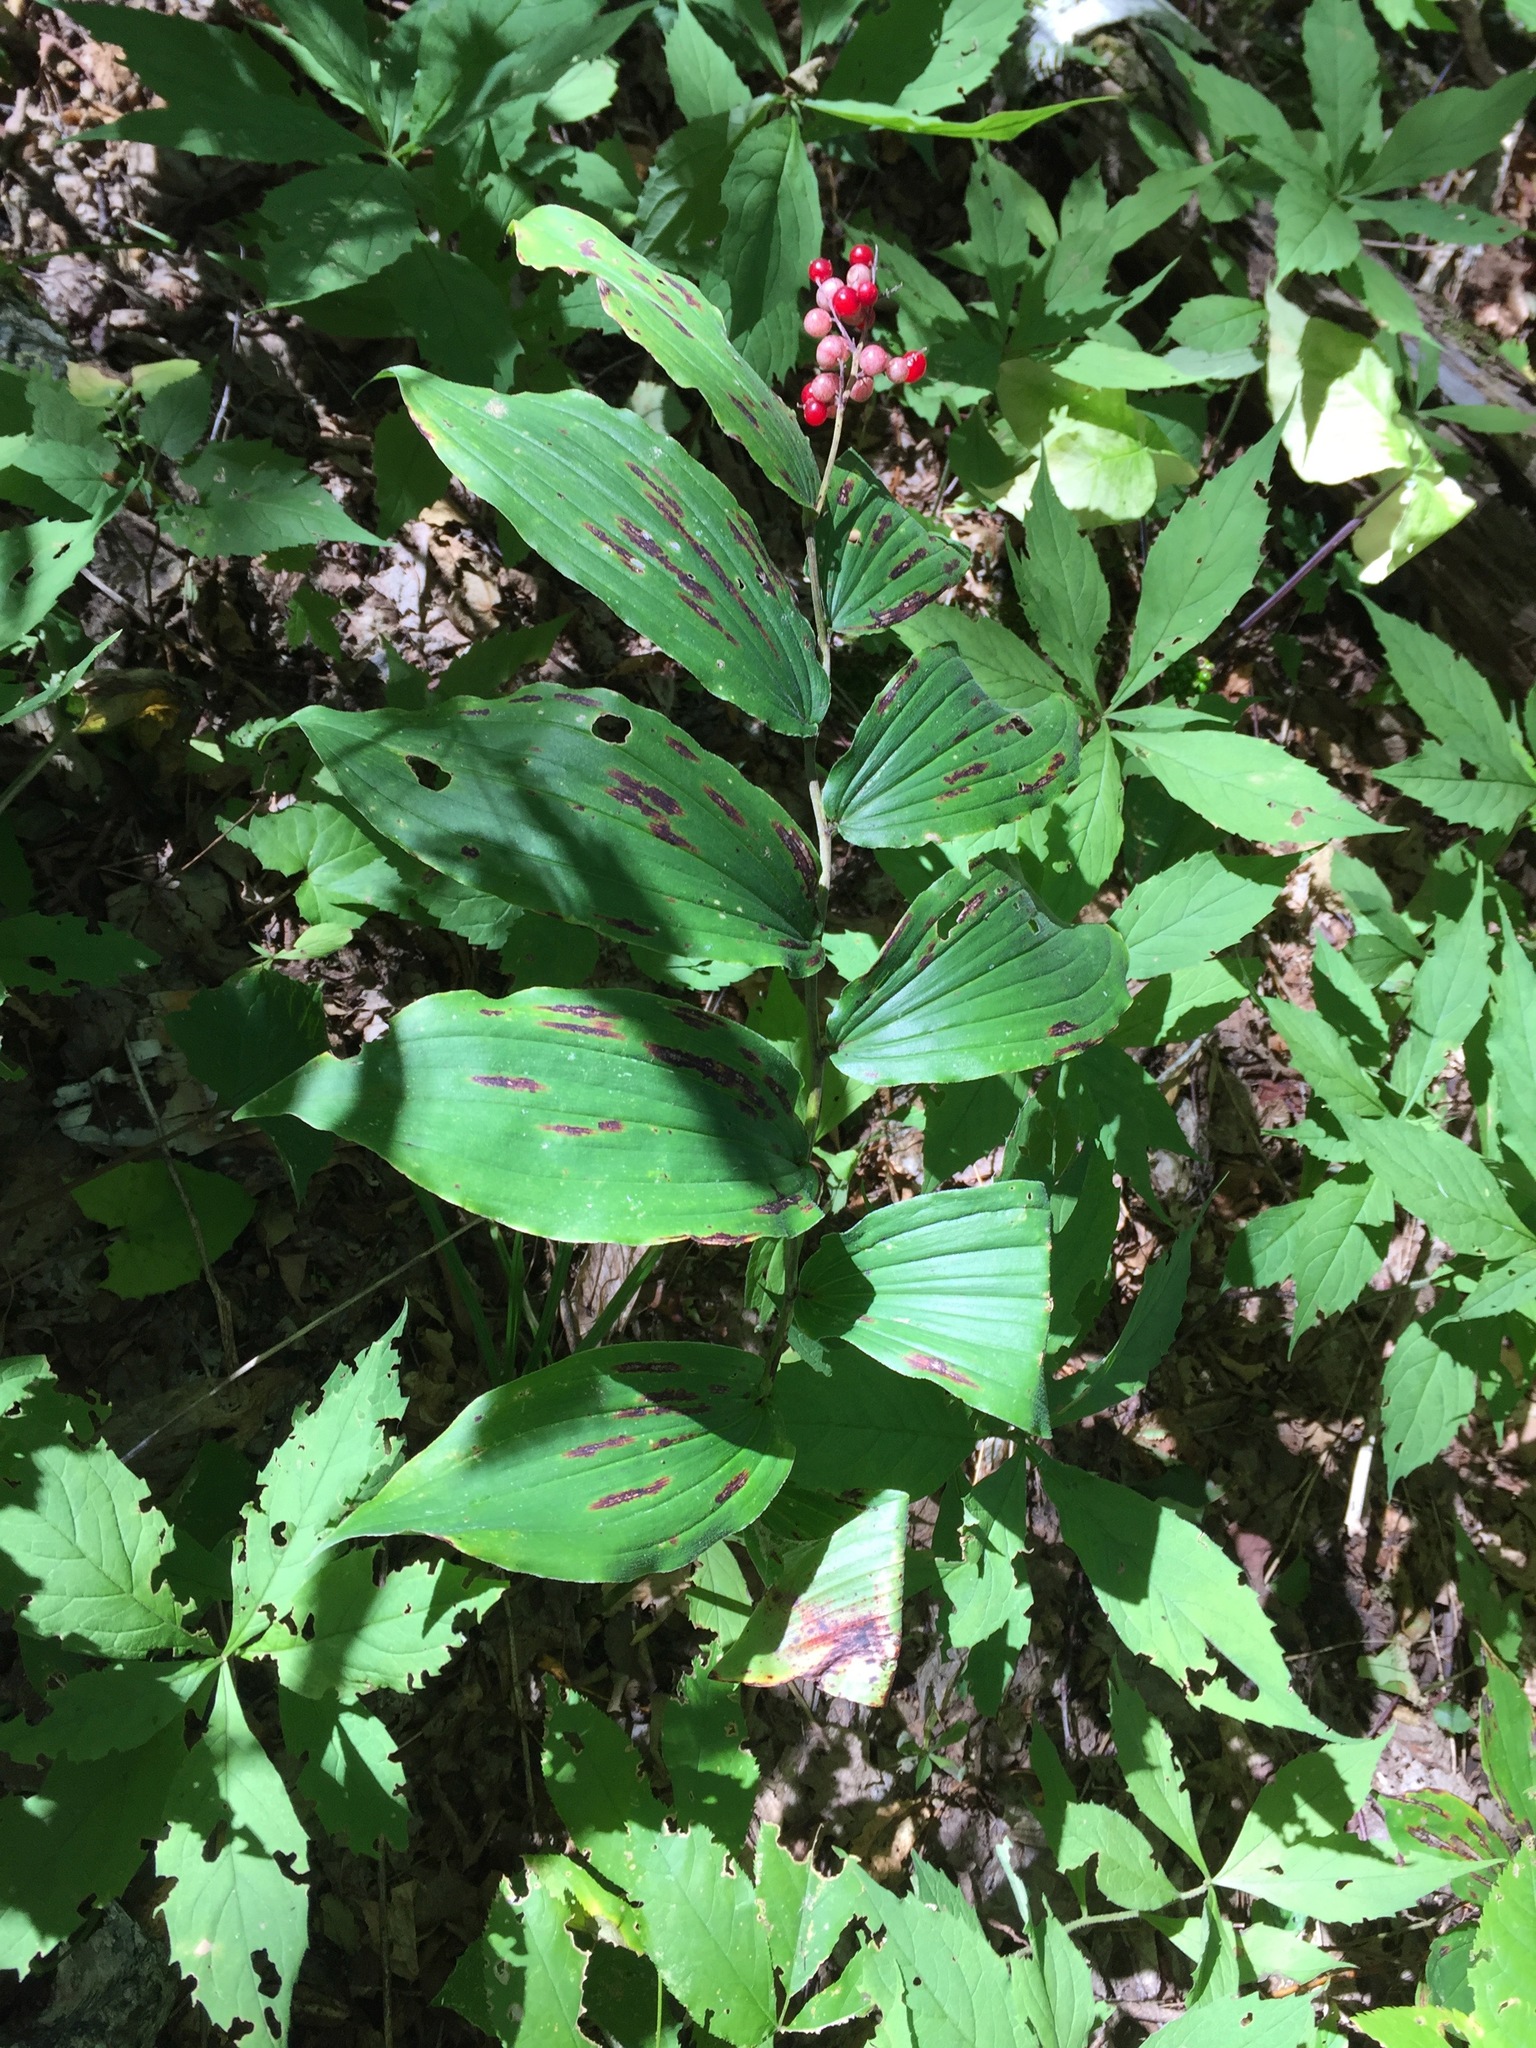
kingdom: Plantae
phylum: Tracheophyta
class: Liliopsida
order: Asparagales
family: Asparagaceae
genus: Maianthemum
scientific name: Maianthemum racemosum
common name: False spikenard
